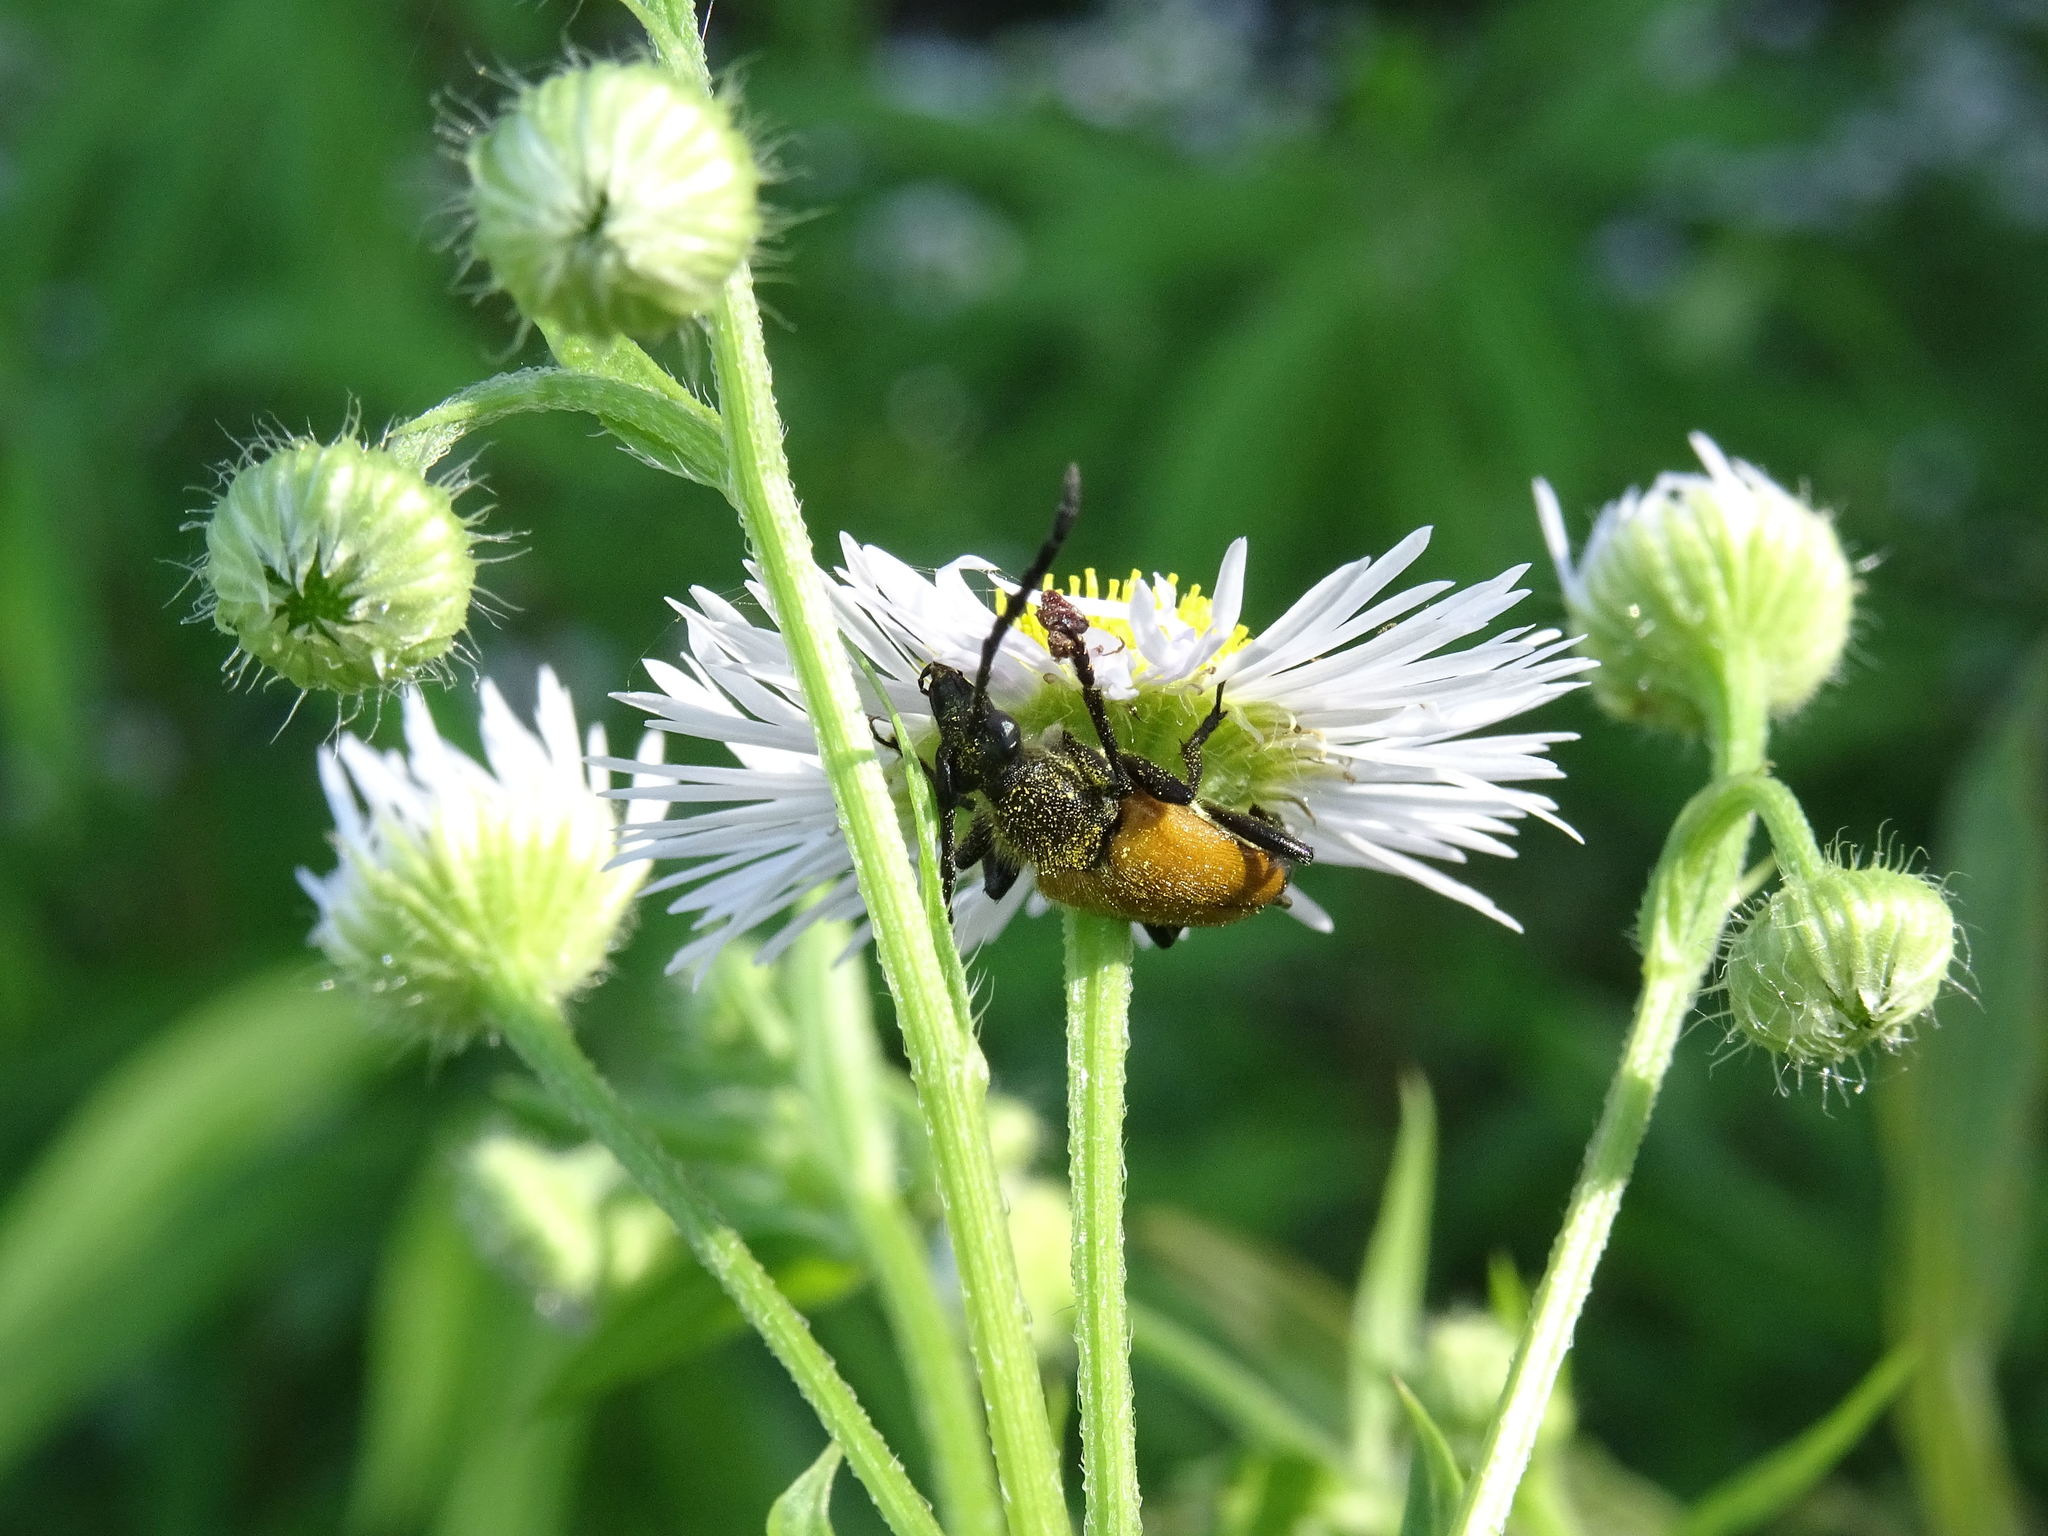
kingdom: Animalia
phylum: Arthropoda
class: Insecta
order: Coleoptera
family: Cerambycidae
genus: Paracorymbia
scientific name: Paracorymbia fulva
